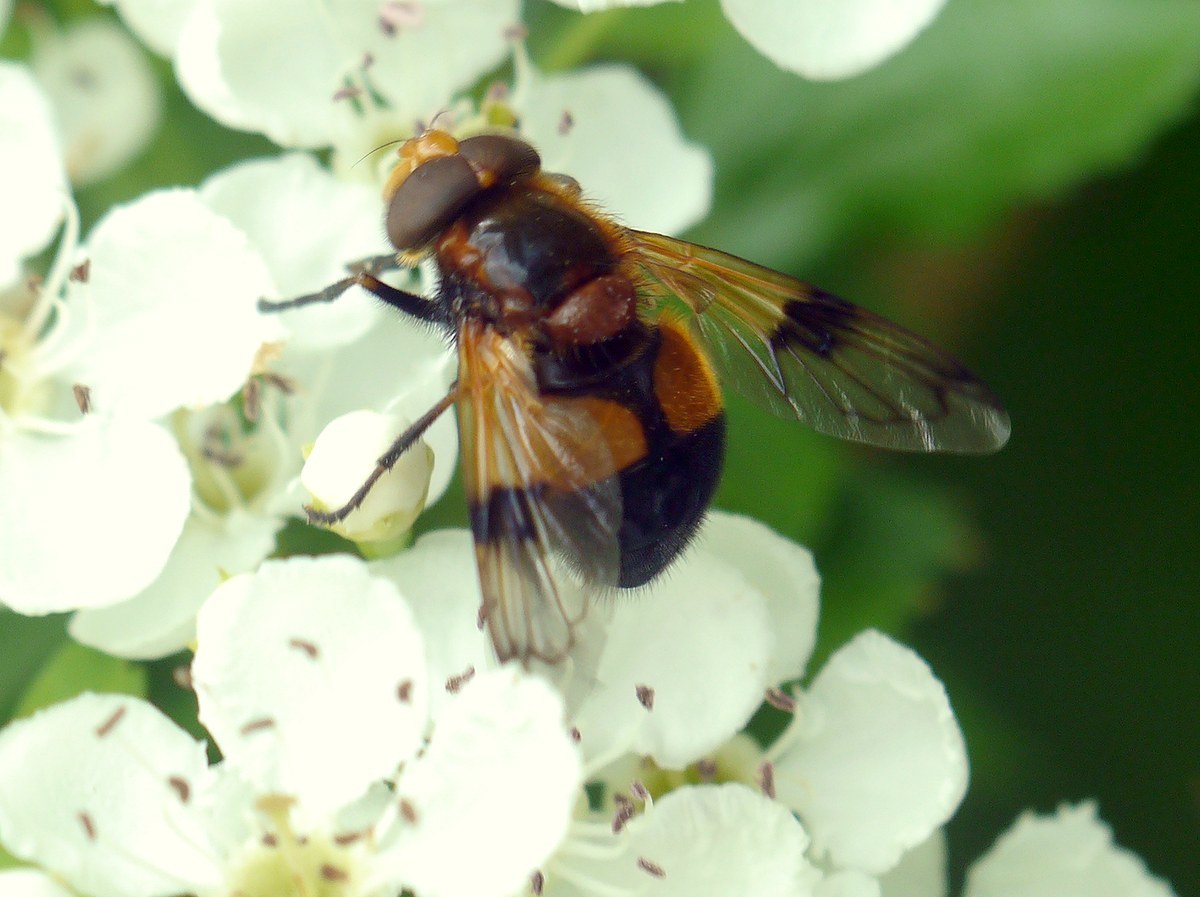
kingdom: Animalia
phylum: Arthropoda
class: Insecta
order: Diptera
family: Syrphidae
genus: Volucella
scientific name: Volucella inflata
